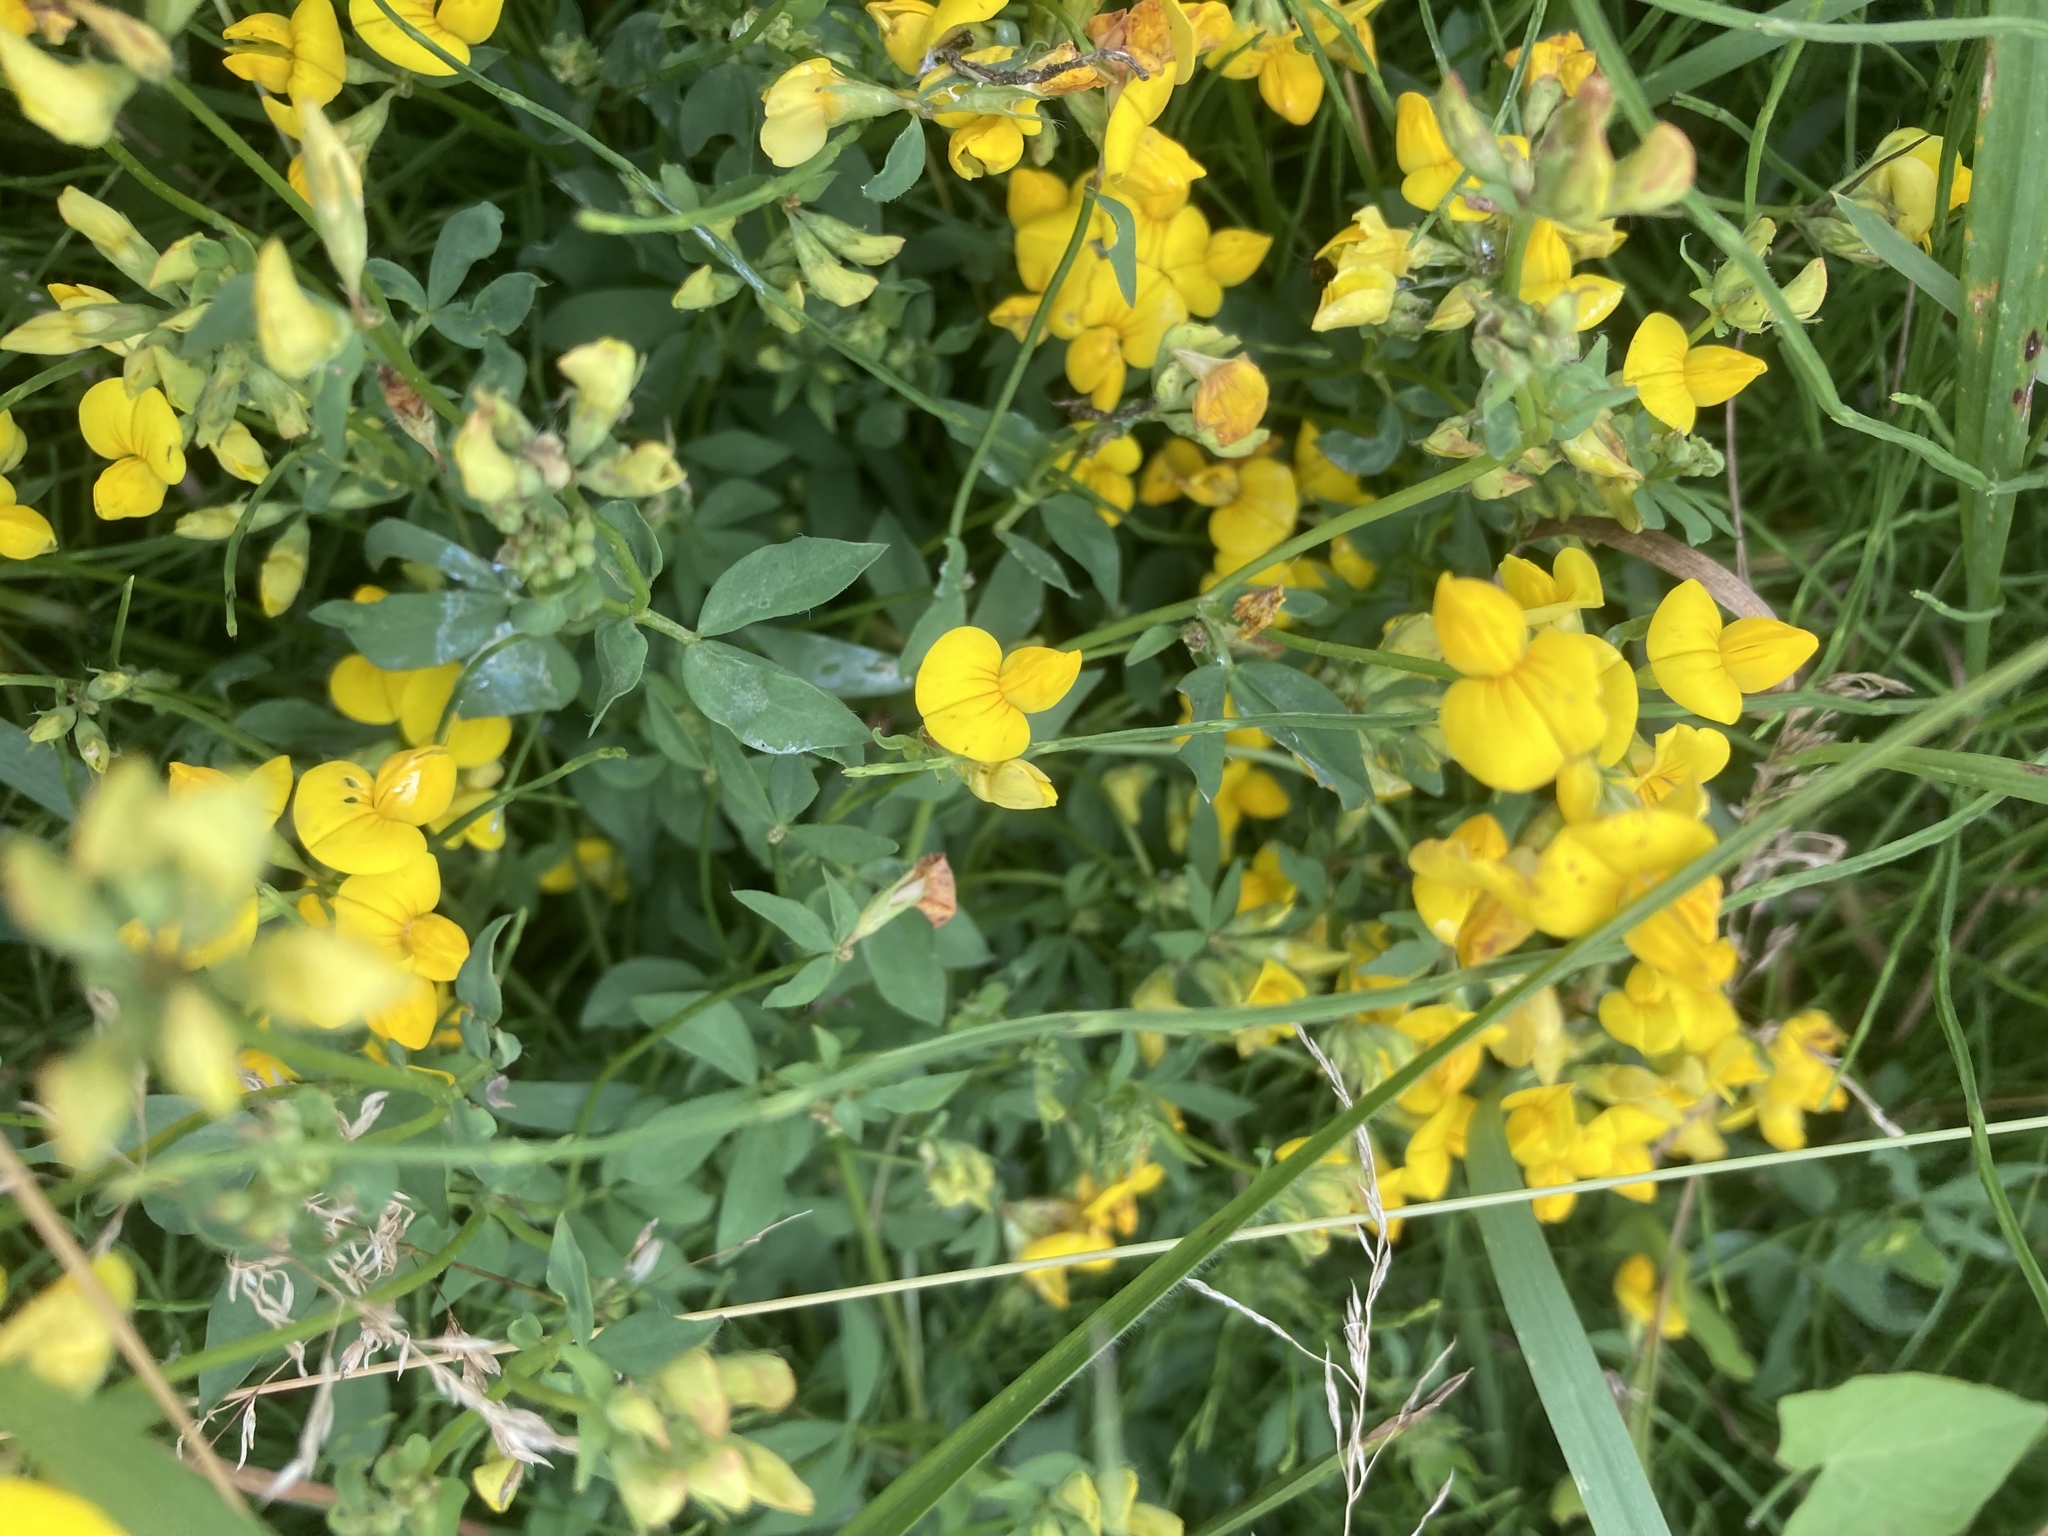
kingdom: Plantae
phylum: Tracheophyta
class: Magnoliopsida
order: Fabales
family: Fabaceae
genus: Lotus
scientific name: Lotus corniculatus
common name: Common bird's-foot-trefoil
